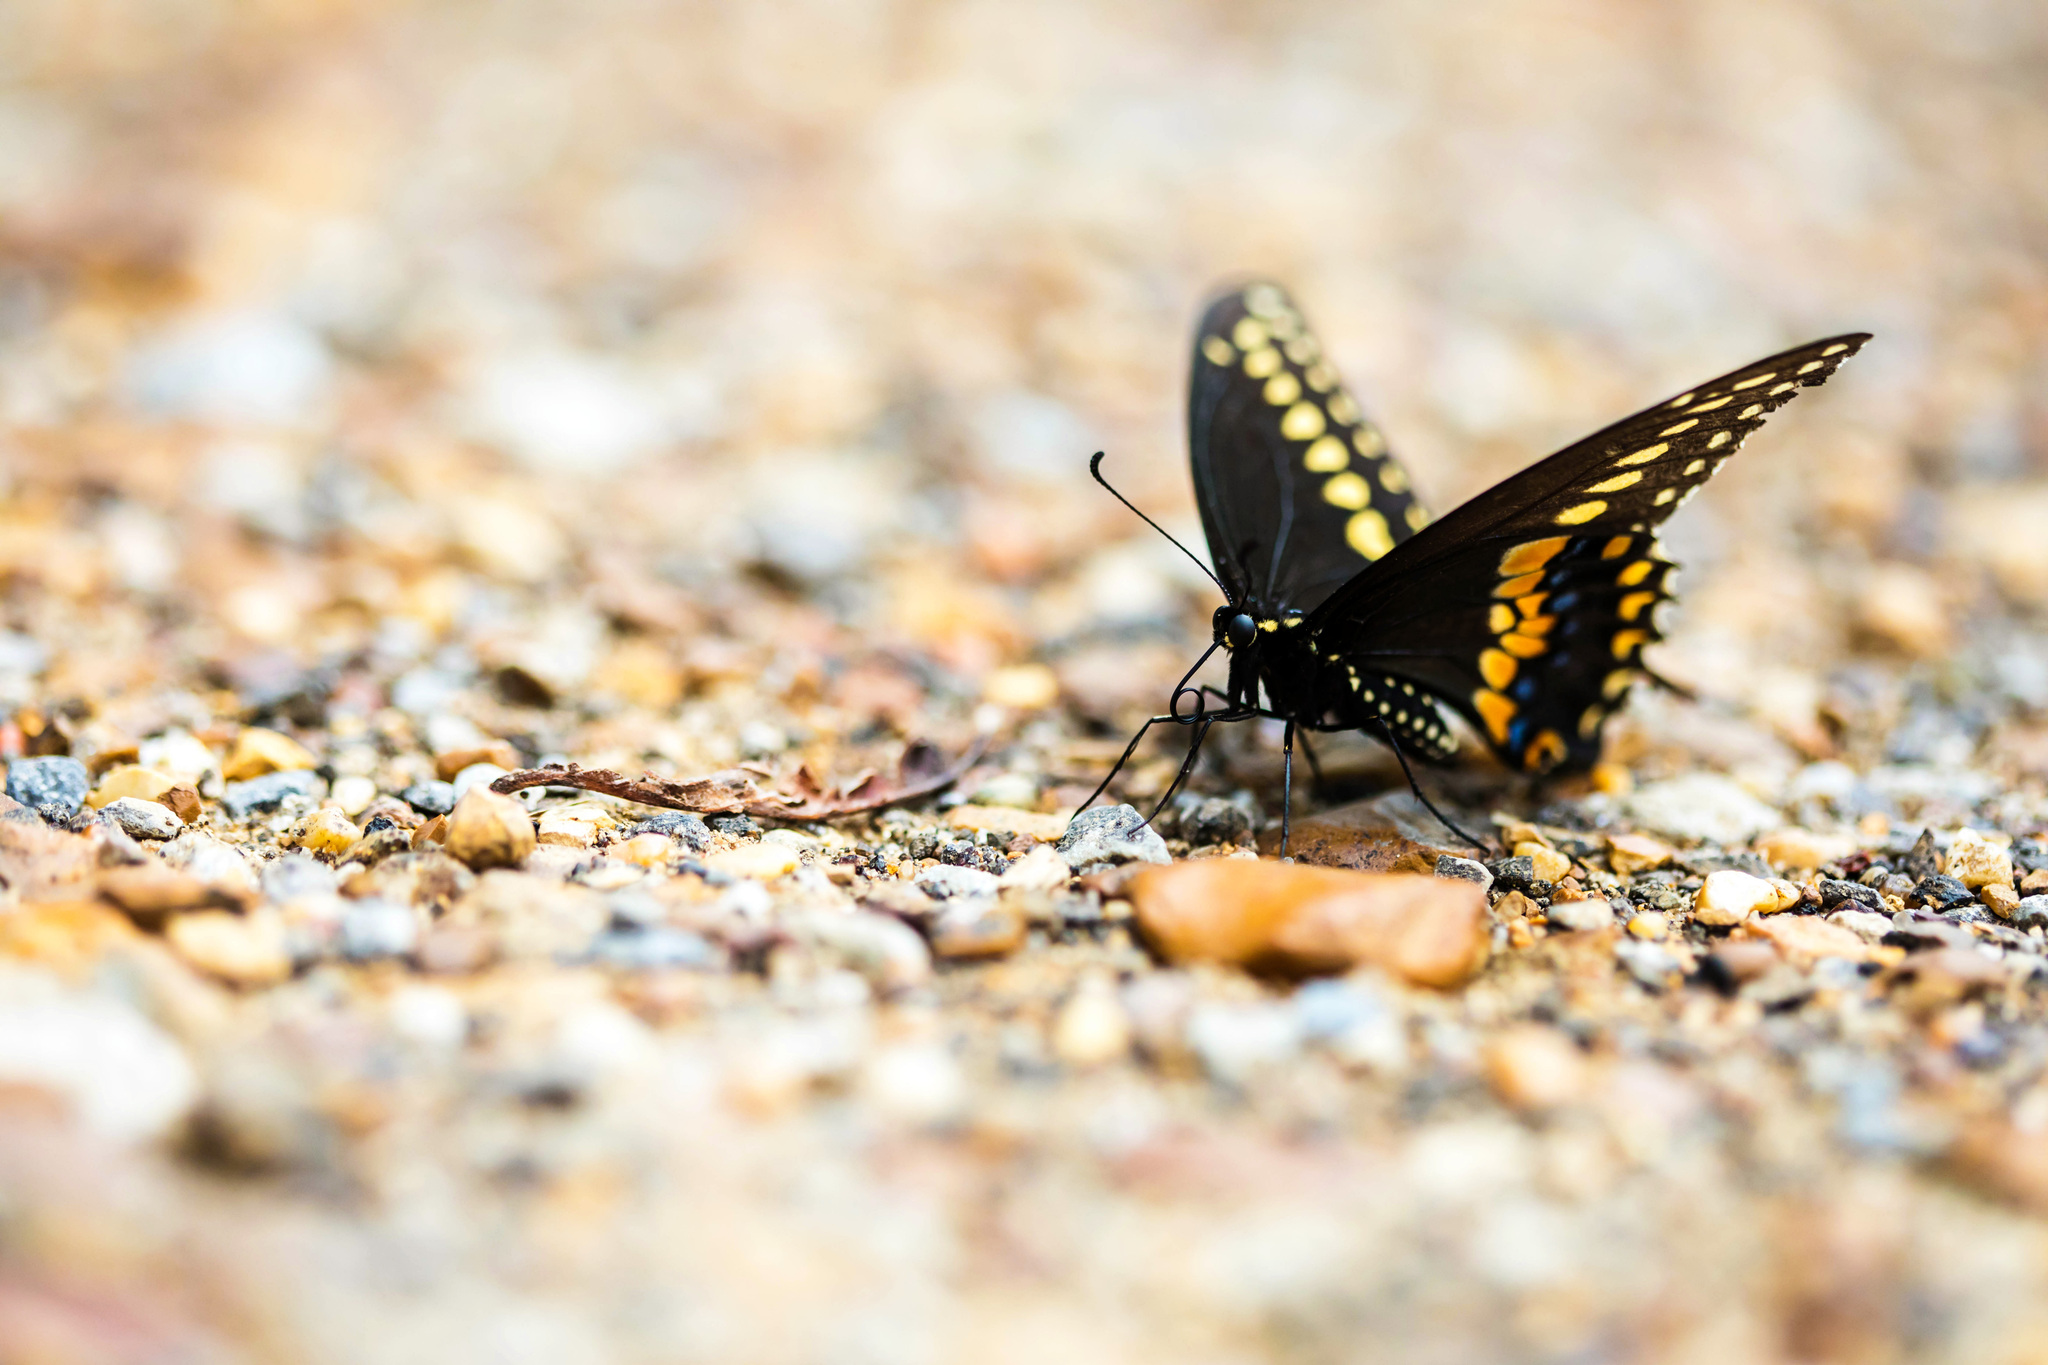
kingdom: Animalia
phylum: Arthropoda
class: Insecta
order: Lepidoptera
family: Papilionidae
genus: Papilio
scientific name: Papilio polyxenes
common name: Black swallowtail
